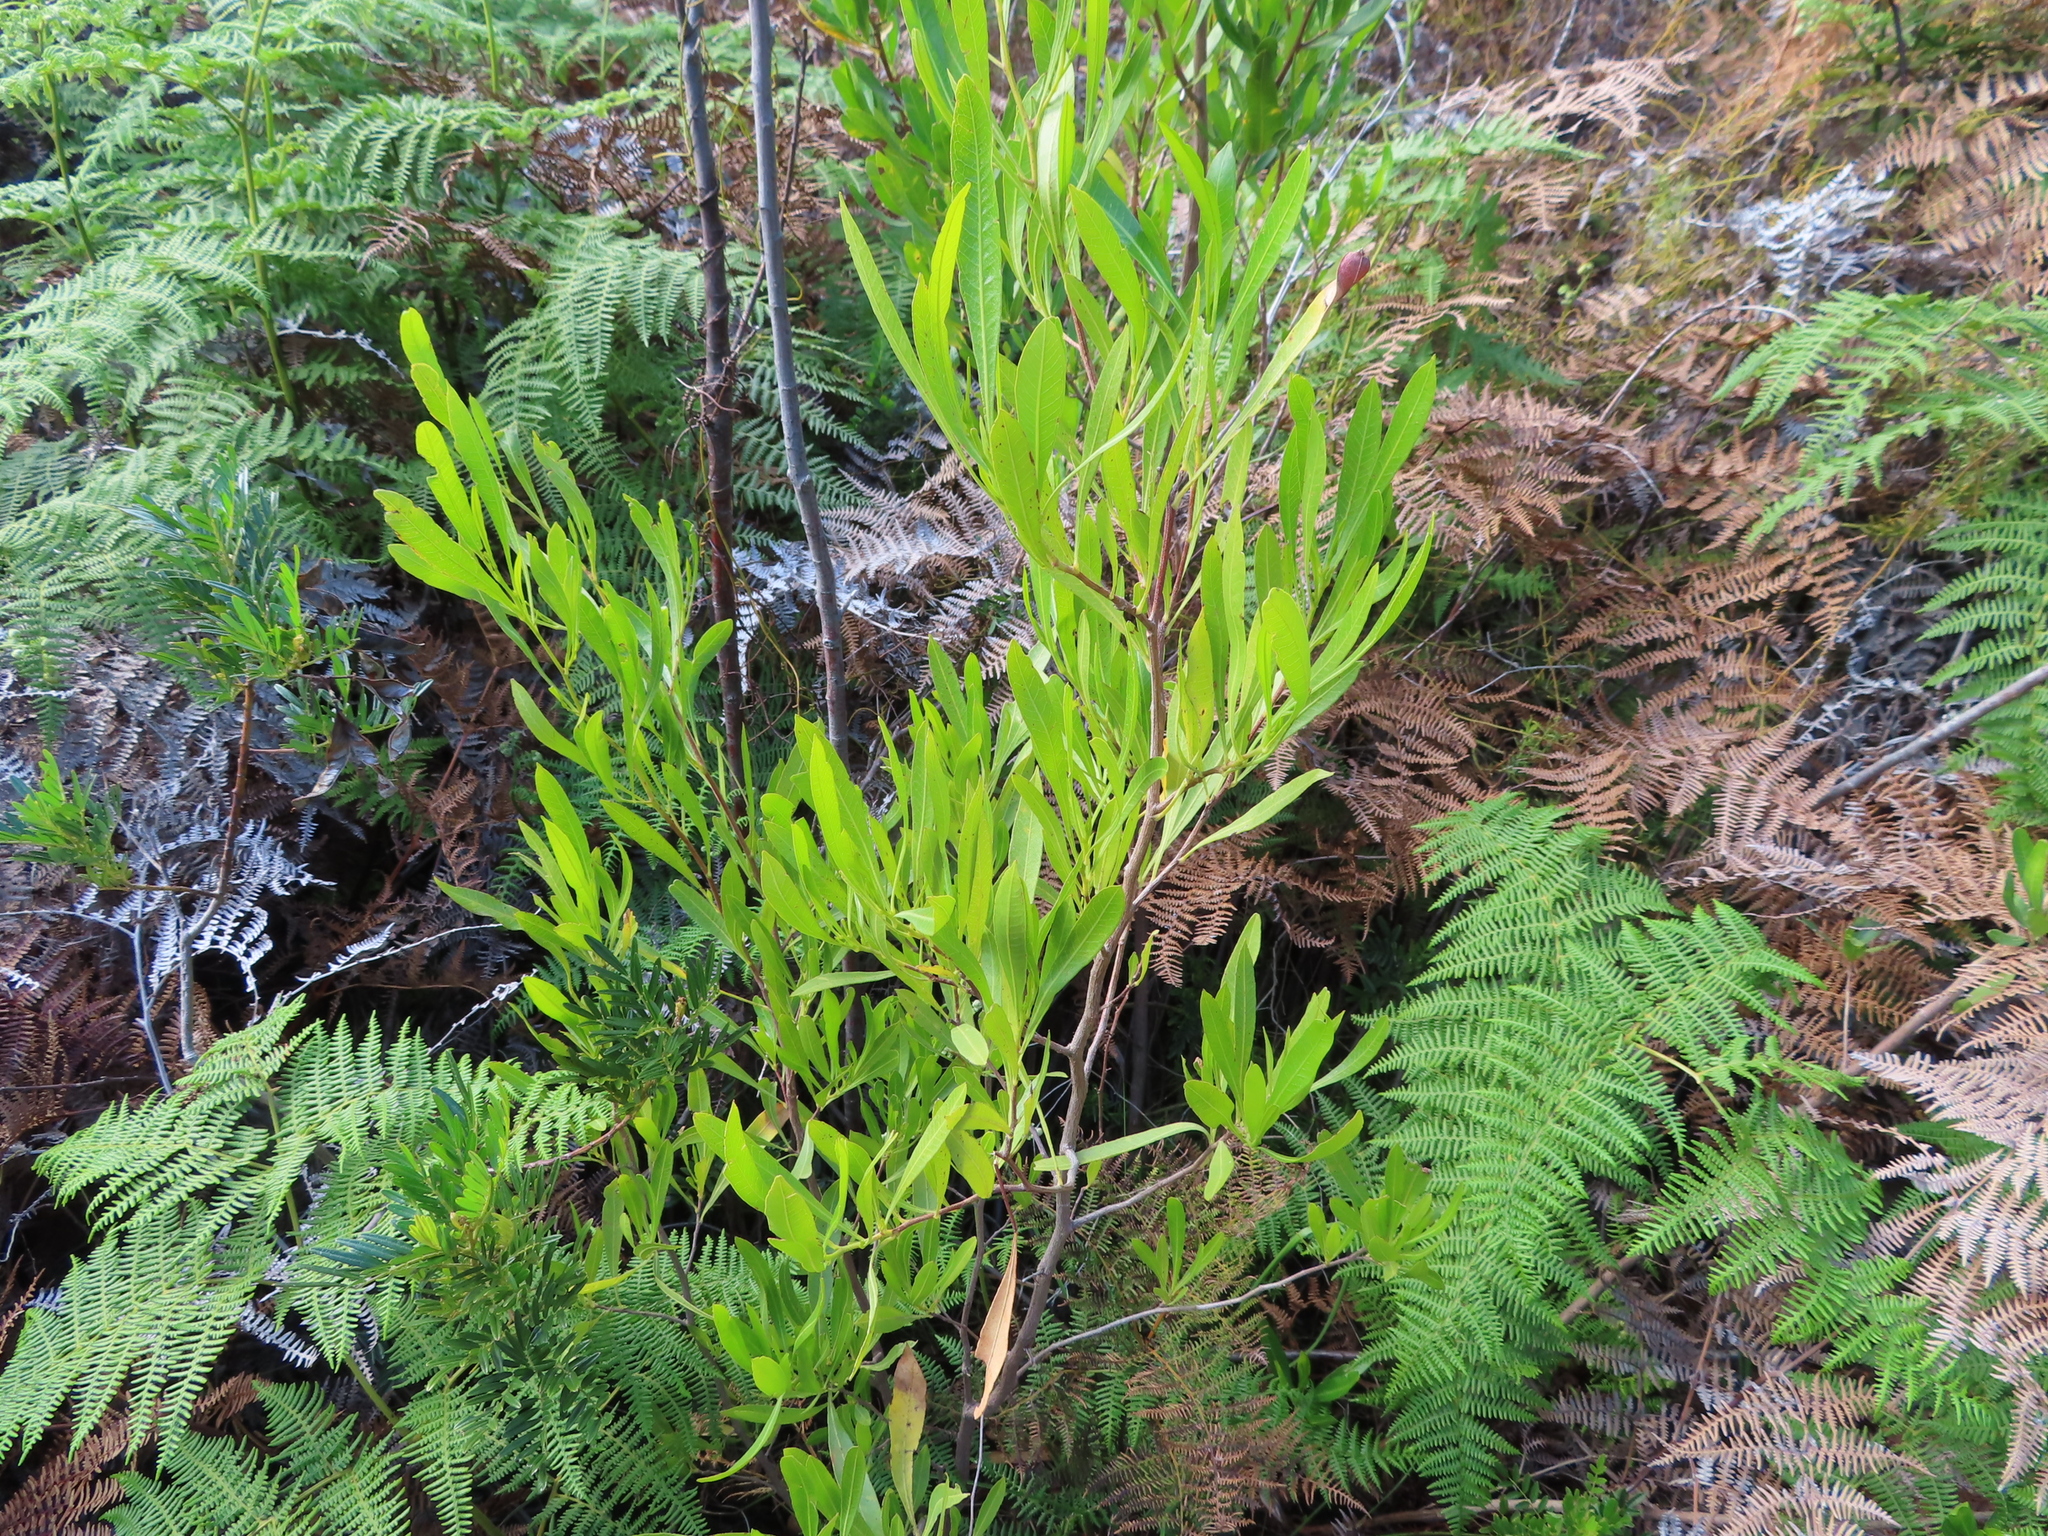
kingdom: Plantae
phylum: Tracheophyta
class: Magnoliopsida
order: Sapindales
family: Sapindaceae
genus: Dodonaea
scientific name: Dodonaea viscosa
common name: Hopbush
